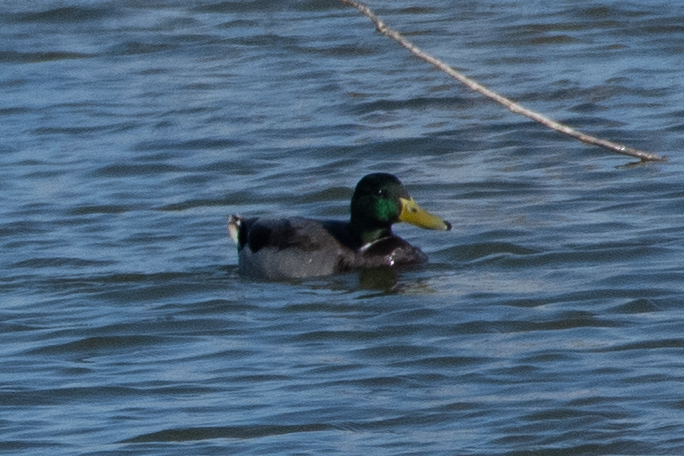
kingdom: Animalia
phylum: Chordata
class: Aves
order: Anseriformes
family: Anatidae
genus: Anas
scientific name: Anas platyrhynchos
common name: Mallard
